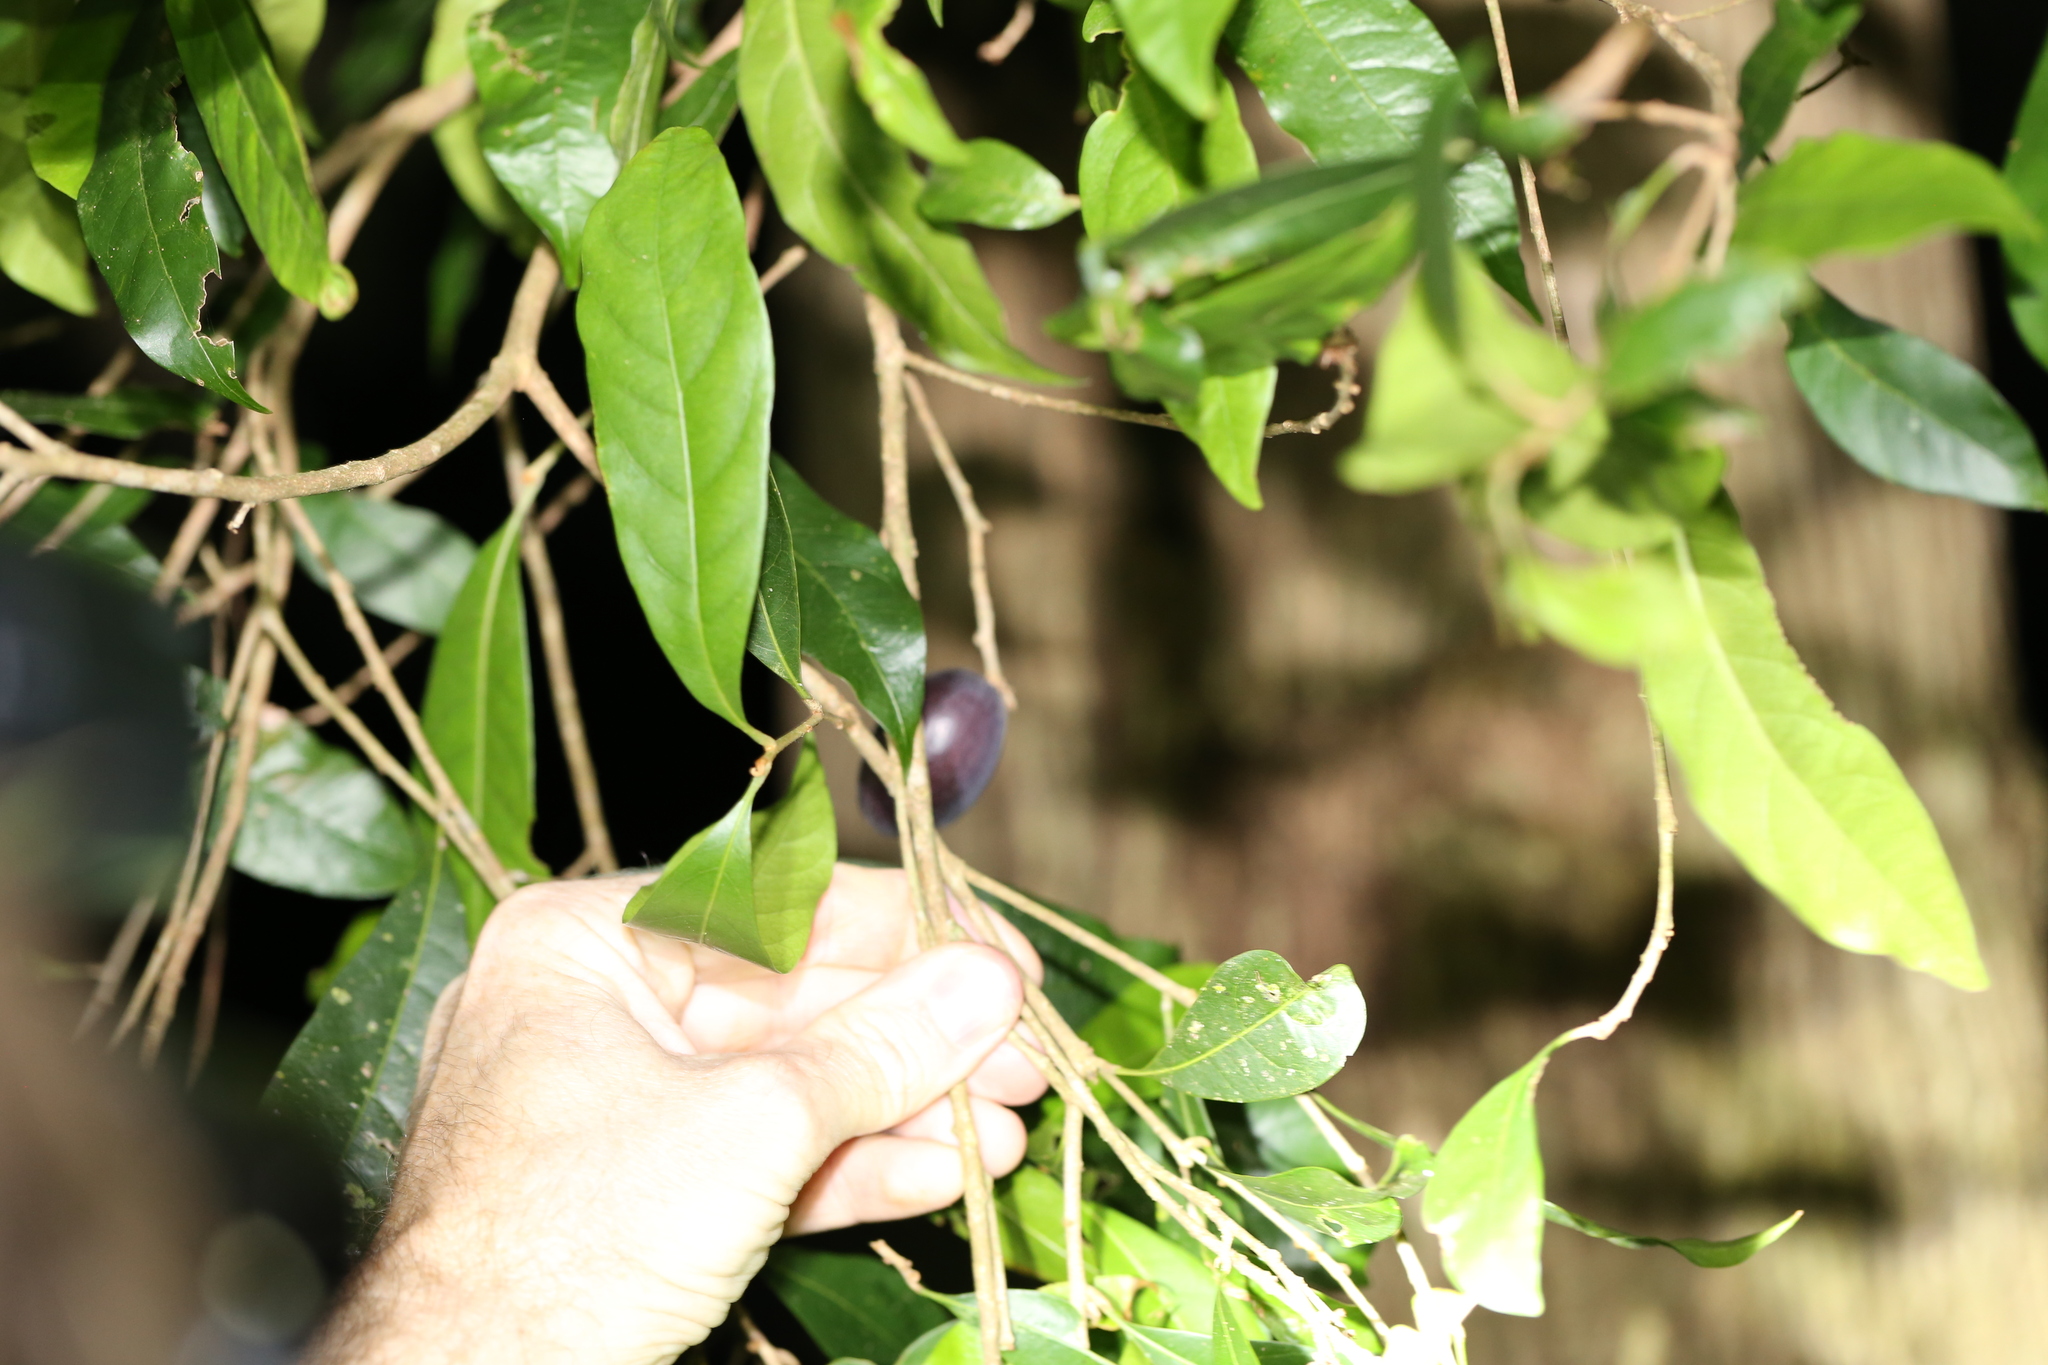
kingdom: Plantae
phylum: Tracheophyta
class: Magnoliopsida
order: Ericales
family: Sapotaceae
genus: Niemeyera
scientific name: Niemeyera chartacea
